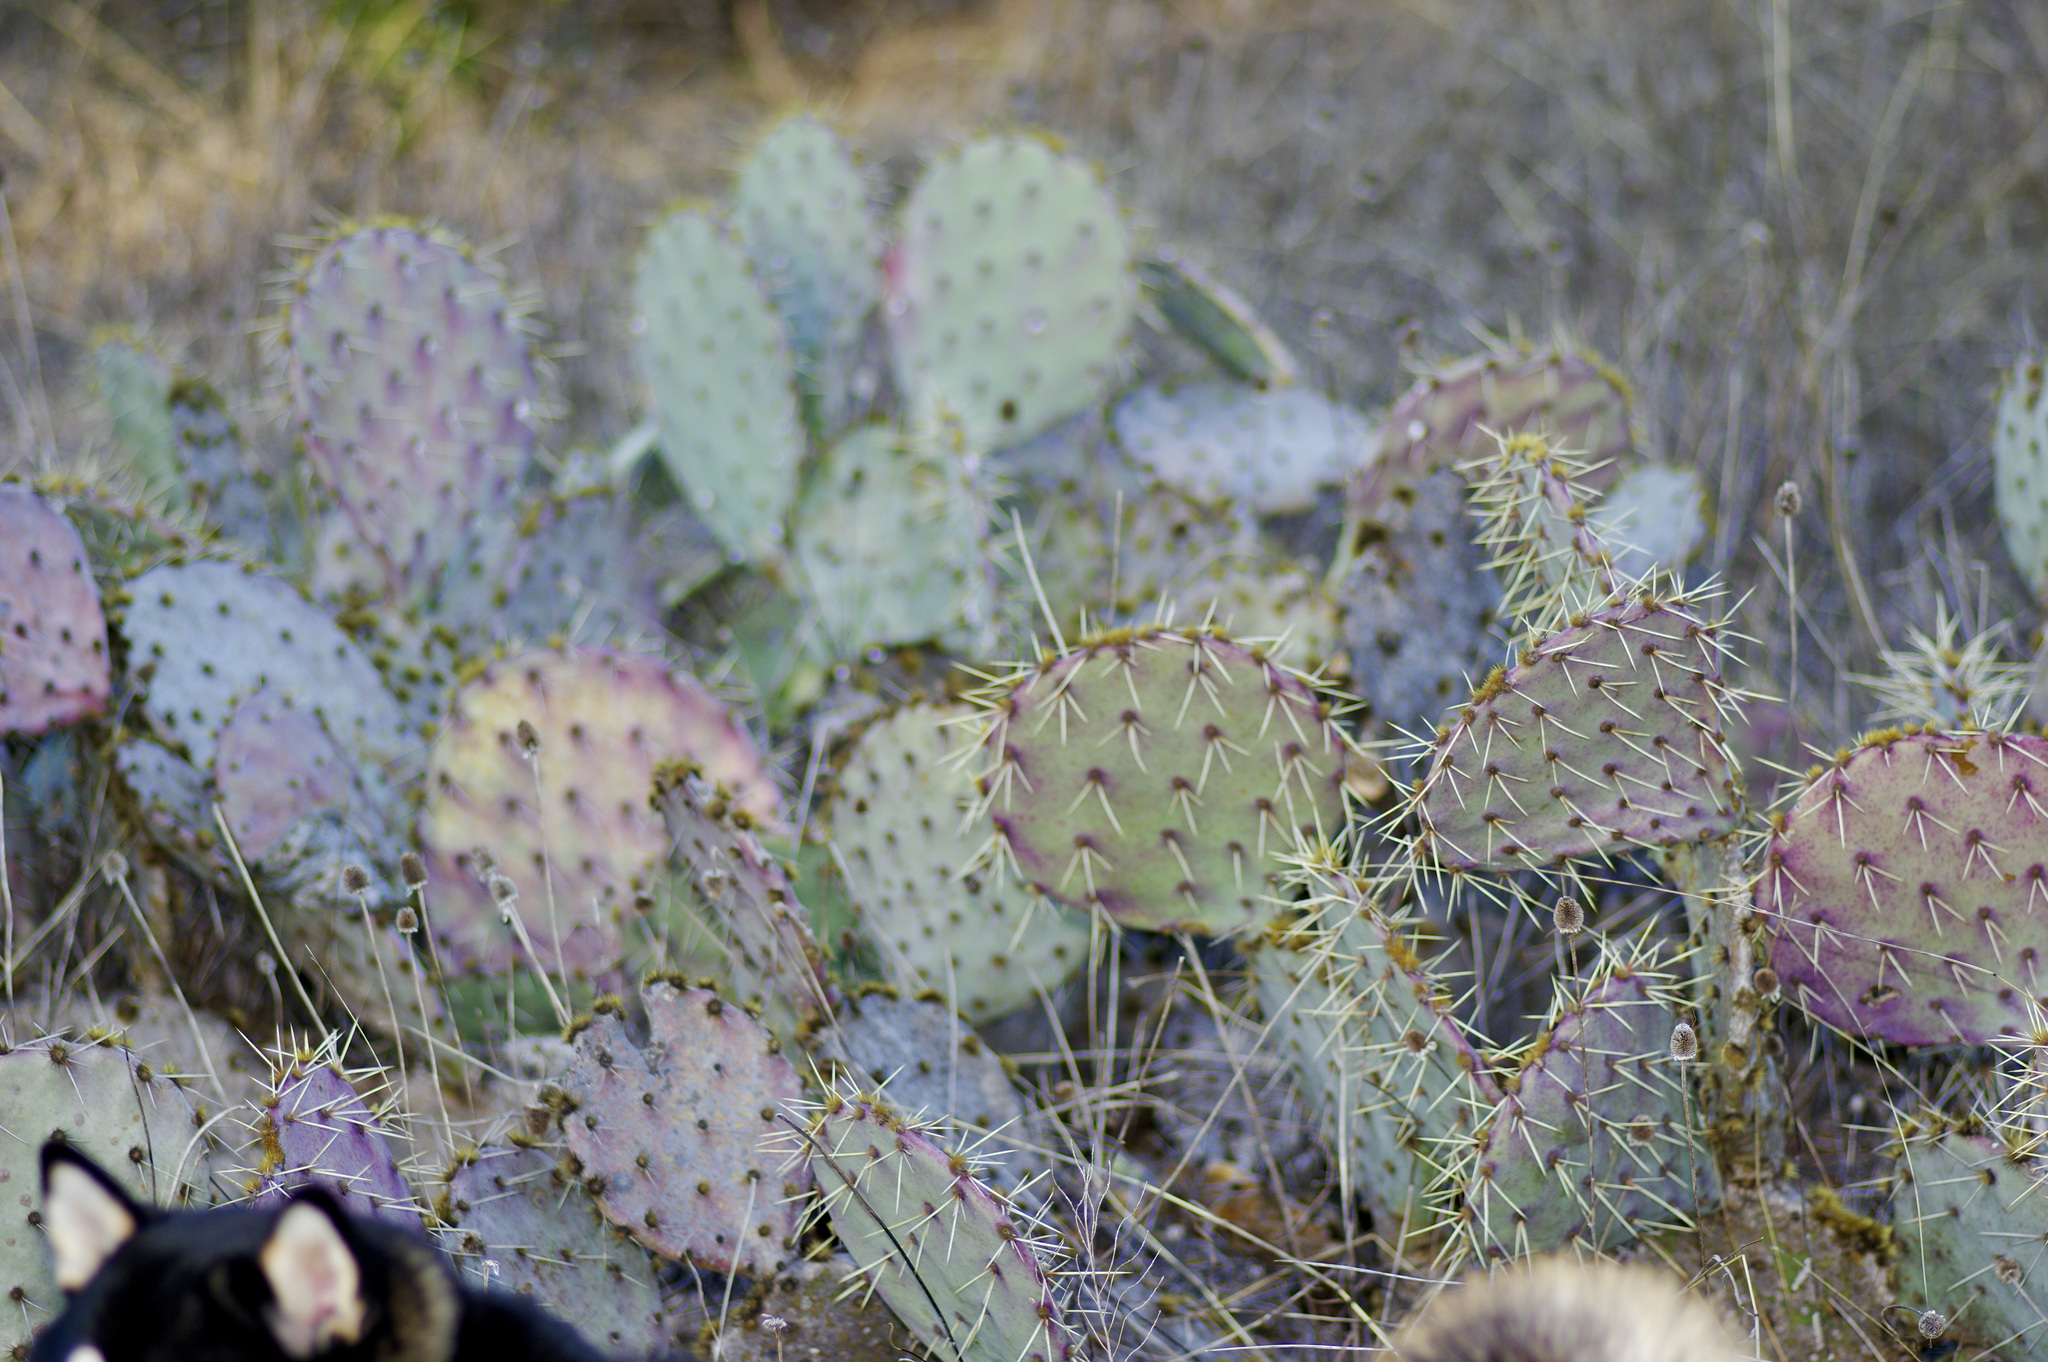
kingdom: Plantae
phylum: Tracheophyta
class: Magnoliopsida
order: Caryophyllales
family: Cactaceae
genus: Opuntia
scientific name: Opuntia engelmannii
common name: Cactus-apple
